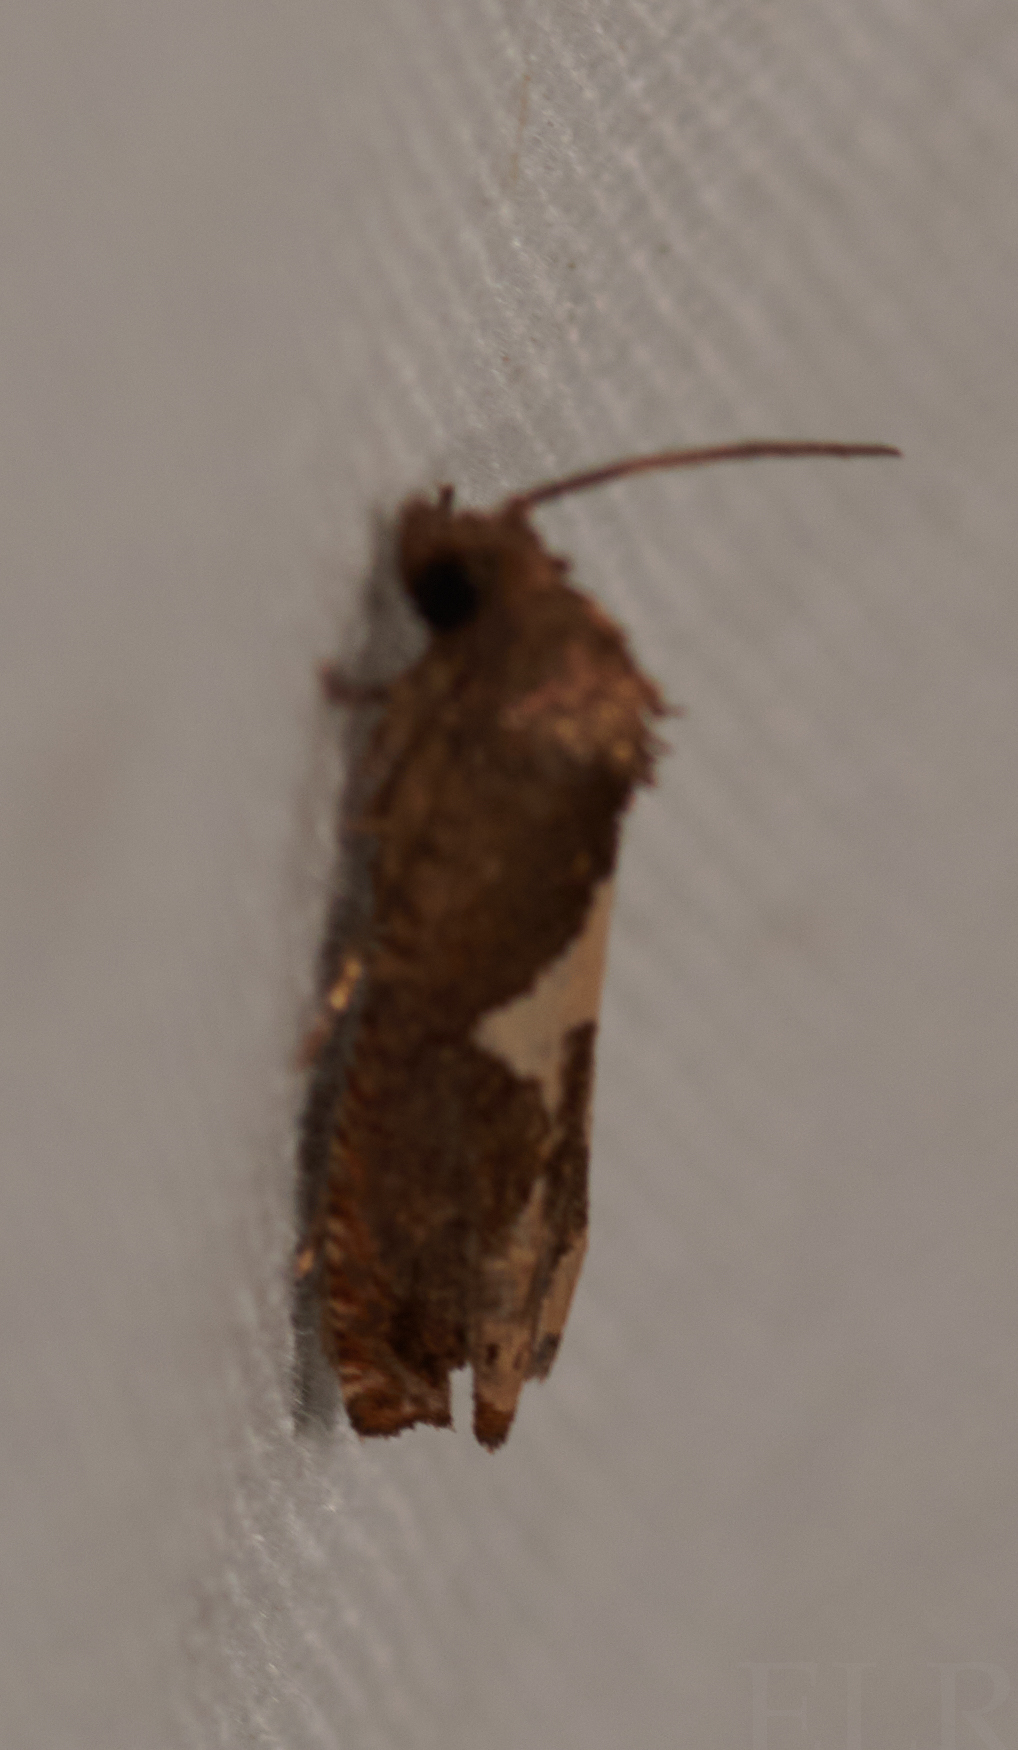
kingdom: Animalia
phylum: Arthropoda
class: Insecta
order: Lepidoptera
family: Tortricidae
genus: Epiblema
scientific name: Epiblema otiosana
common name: Bidens borer moth
